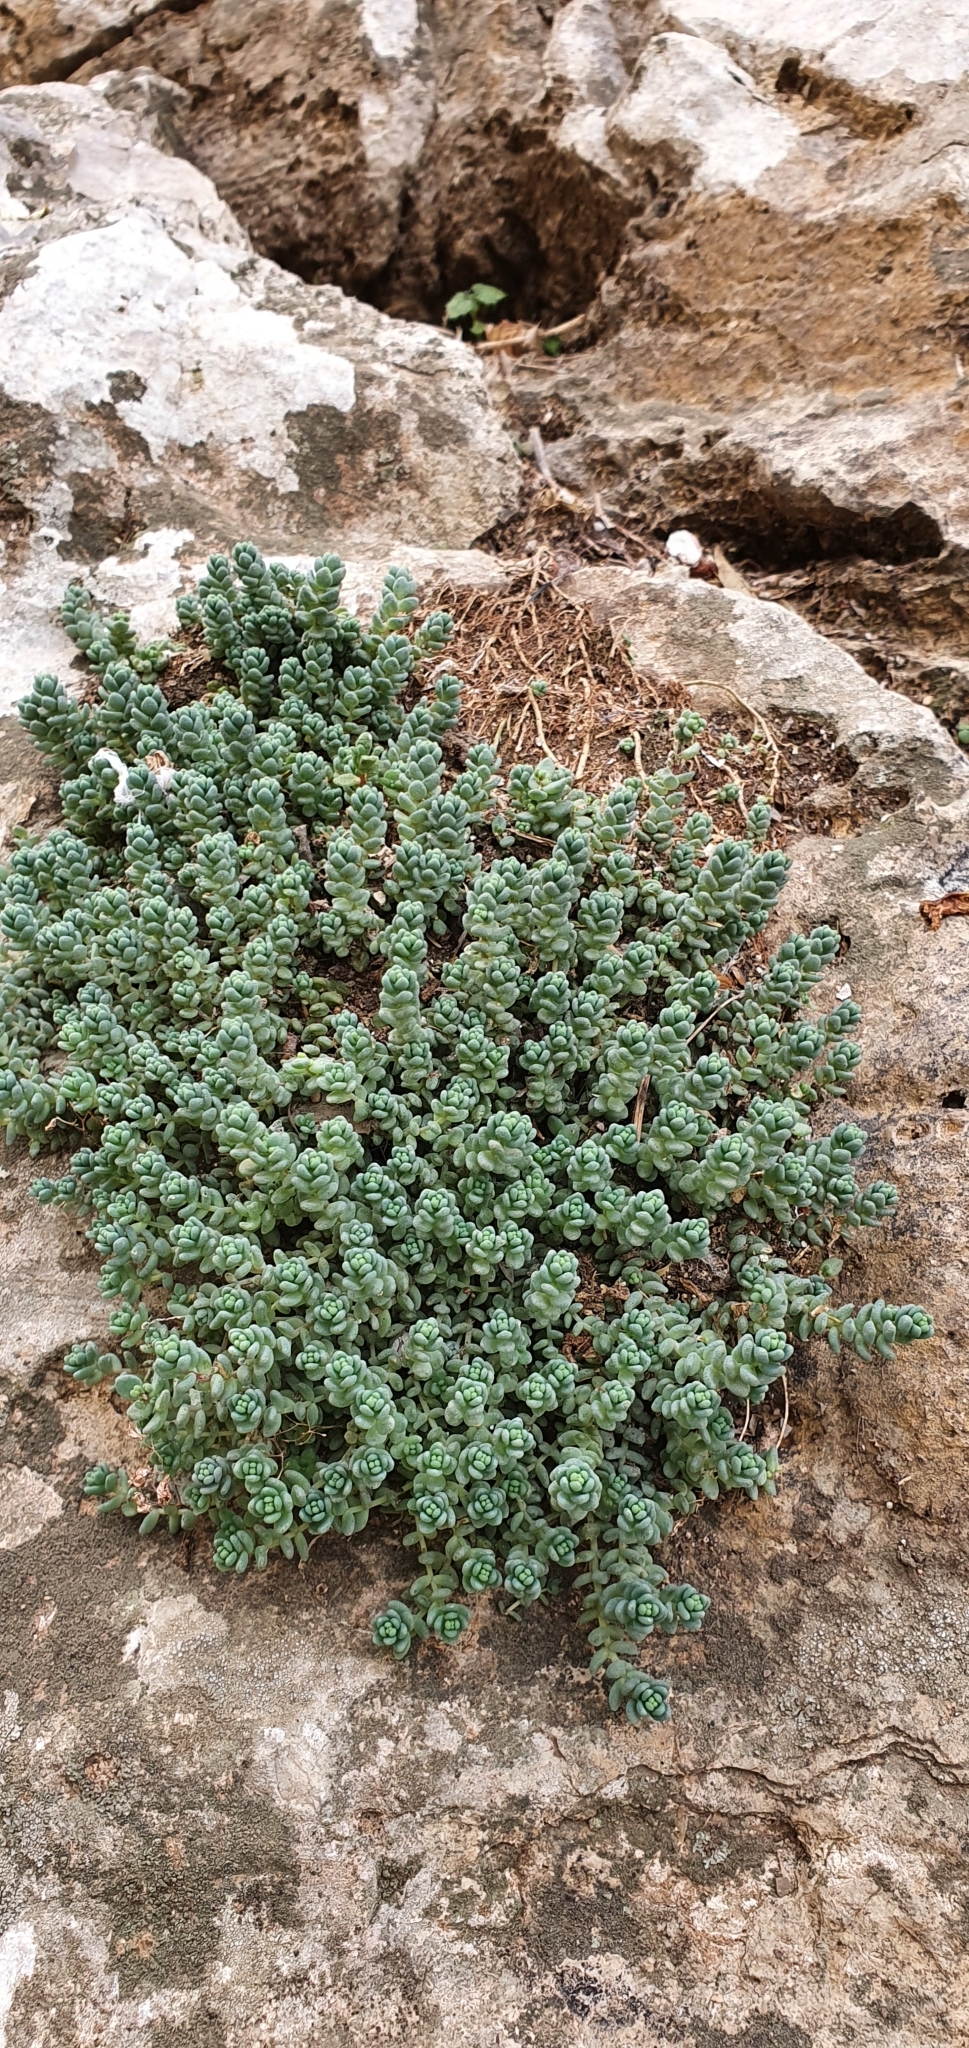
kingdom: Plantae
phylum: Tracheophyta
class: Magnoliopsida
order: Saxifragales
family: Crassulaceae
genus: Sedum
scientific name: Sedum dasyphyllum
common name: Thick-leaf stonecrop
